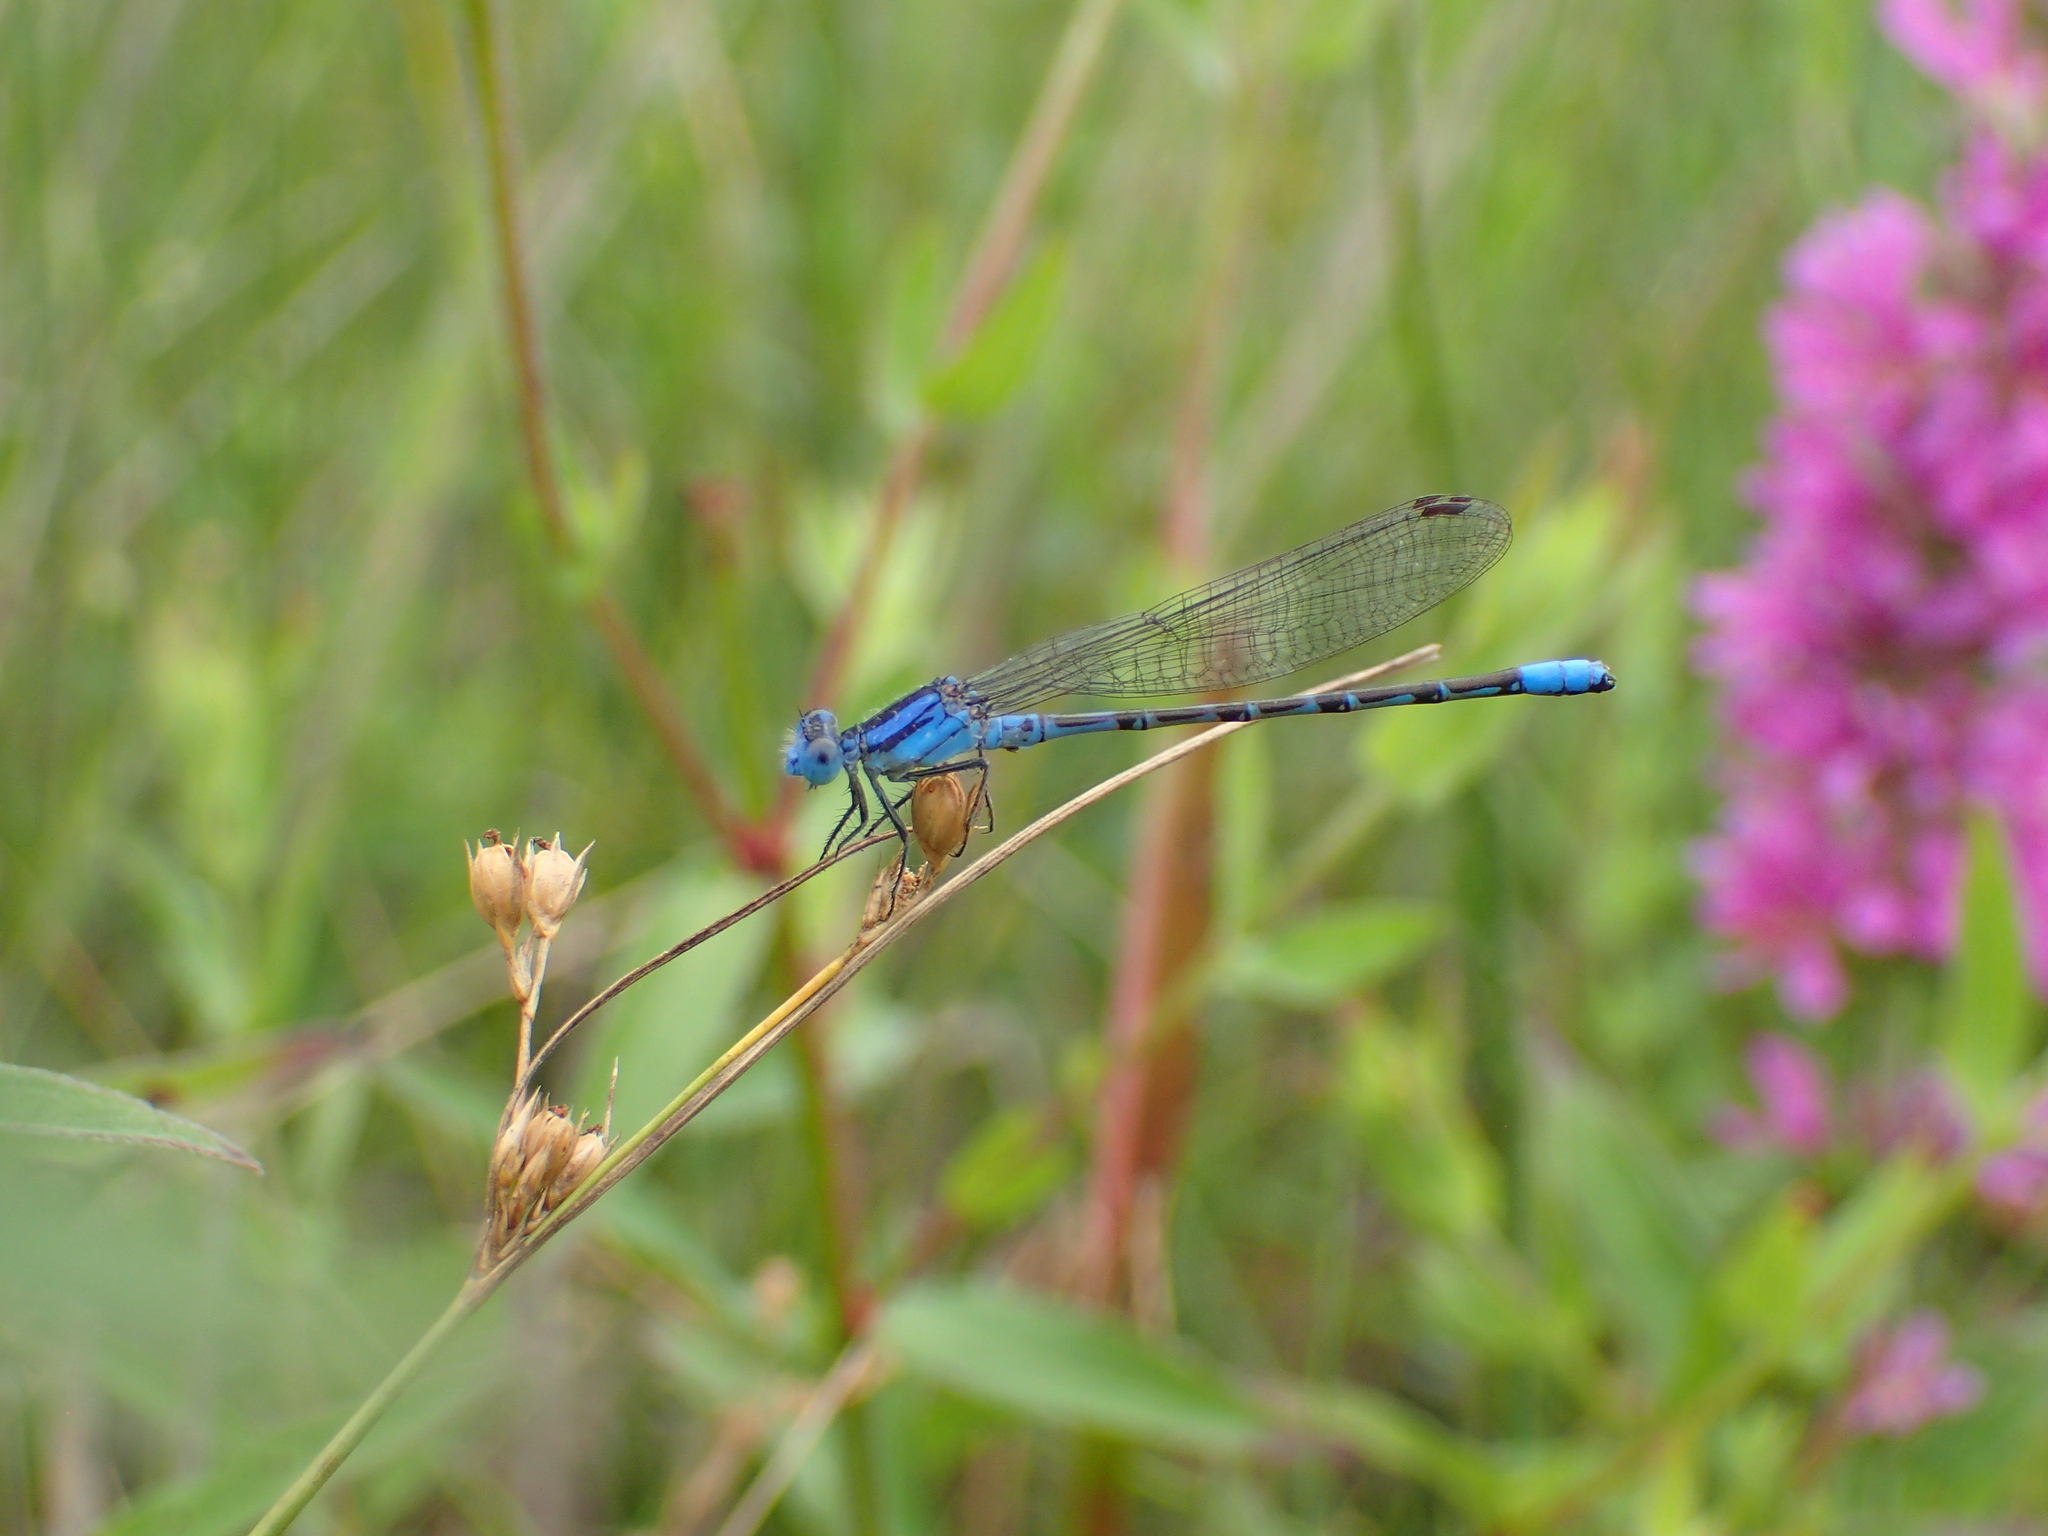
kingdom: Animalia
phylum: Arthropoda
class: Insecta
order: Odonata
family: Coenagrionidae
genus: Argia
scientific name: Argia alberta
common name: Paiute dancer
